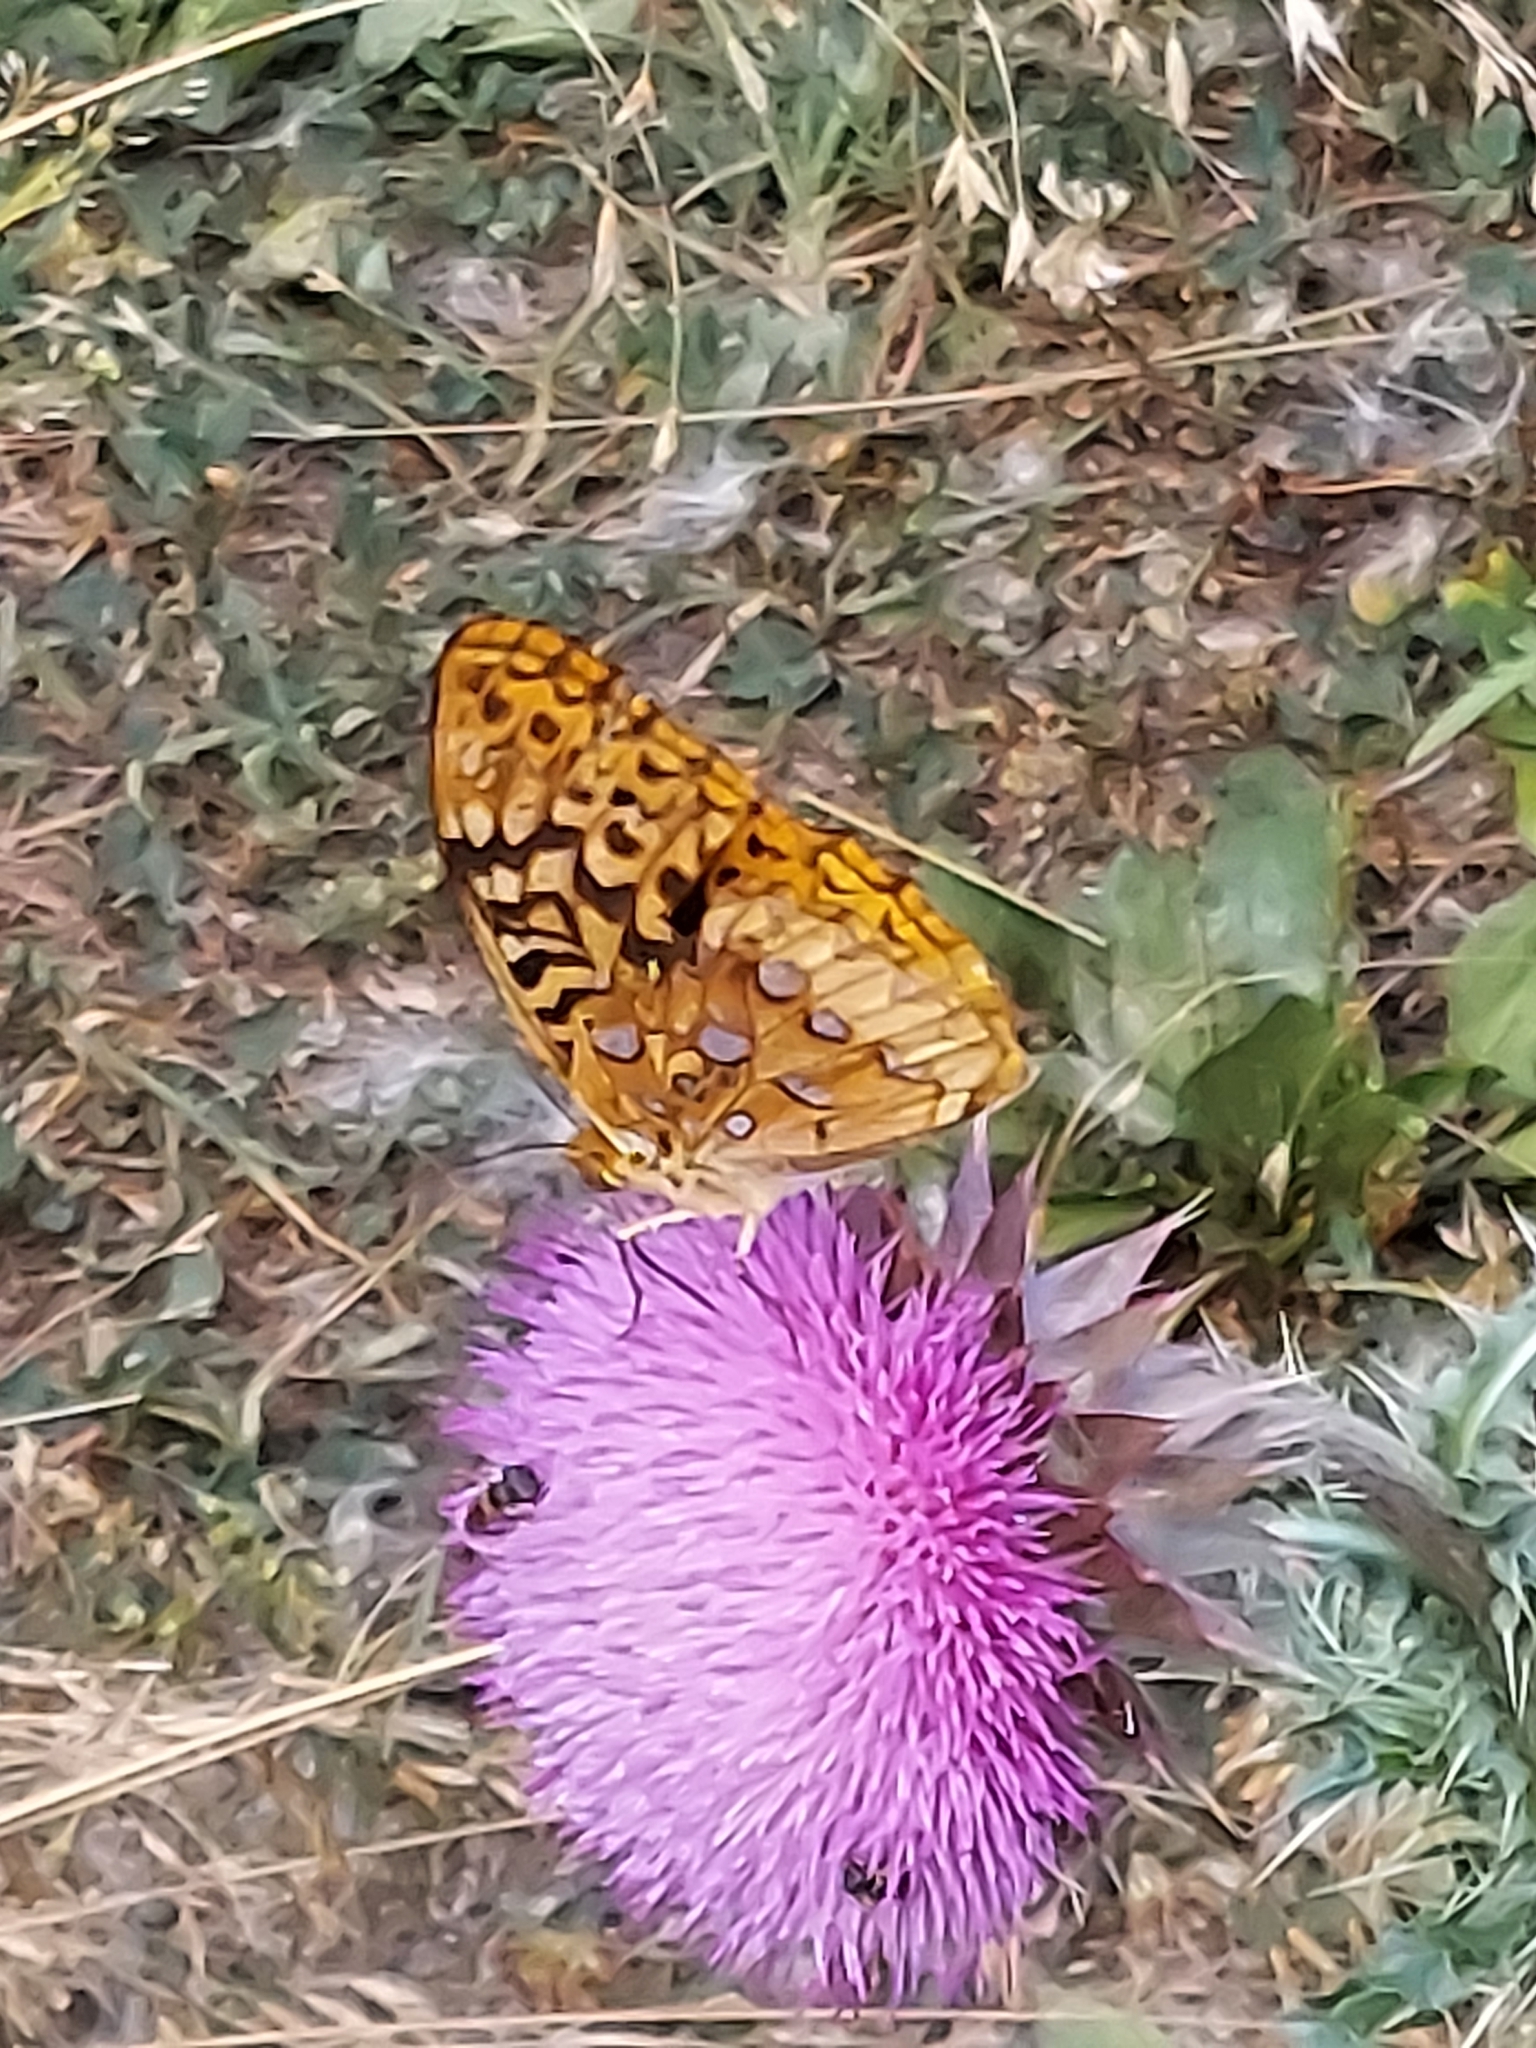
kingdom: Animalia
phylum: Arthropoda
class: Insecta
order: Lepidoptera
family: Nymphalidae
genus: Speyeria
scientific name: Speyeria cybele
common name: Great spangled fritillary
